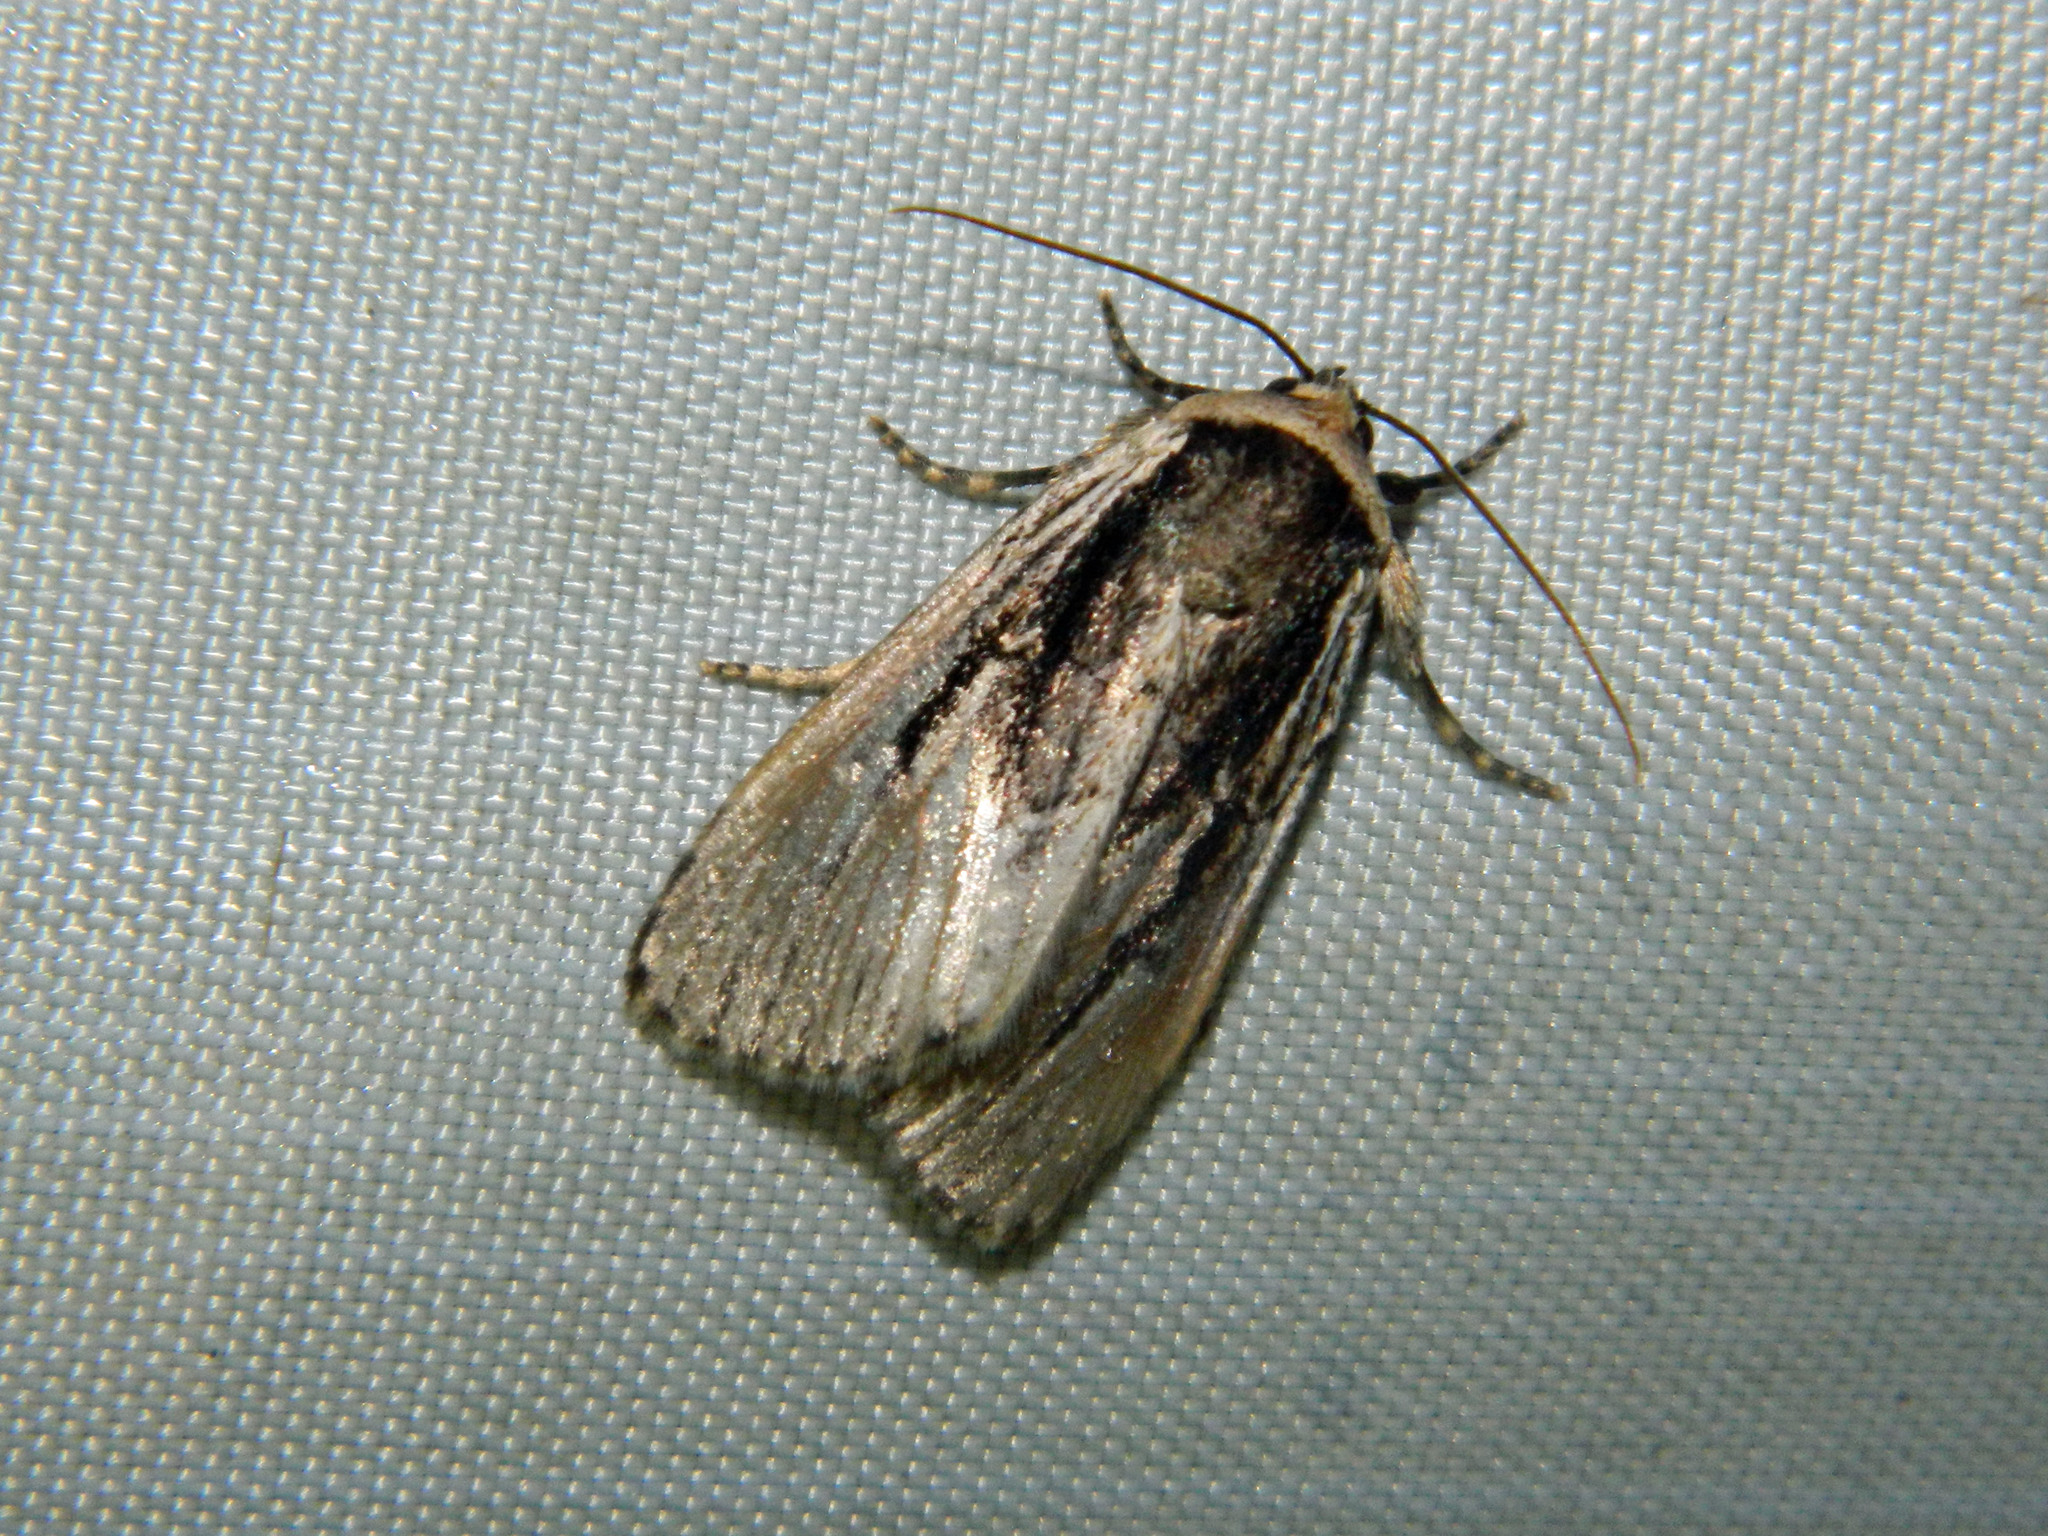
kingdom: Animalia
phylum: Arthropoda
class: Insecta
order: Lepidoptera
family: Noctuidae
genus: Sympistis
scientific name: Sympistis badistriga
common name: Brown-lined sallow moth
